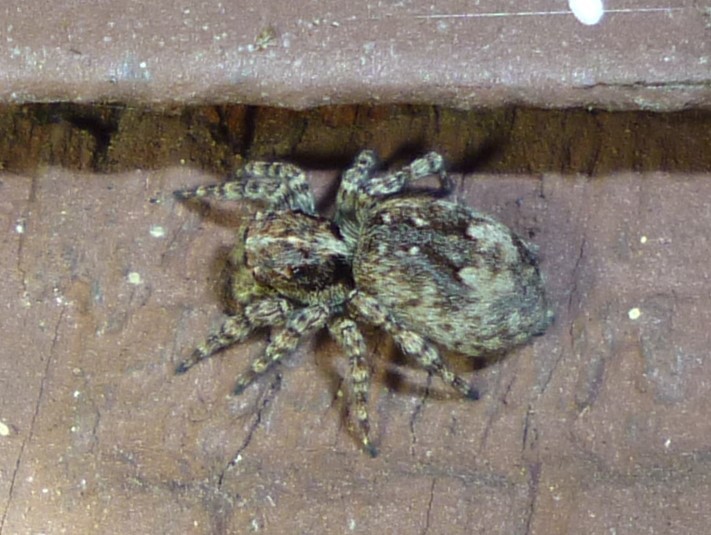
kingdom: Animalia
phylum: Arthropoda
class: Arachnida
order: Araneae
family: Salticidae
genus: Attulus
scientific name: Attulus fasciger
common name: Asiatic wall jumping spider
